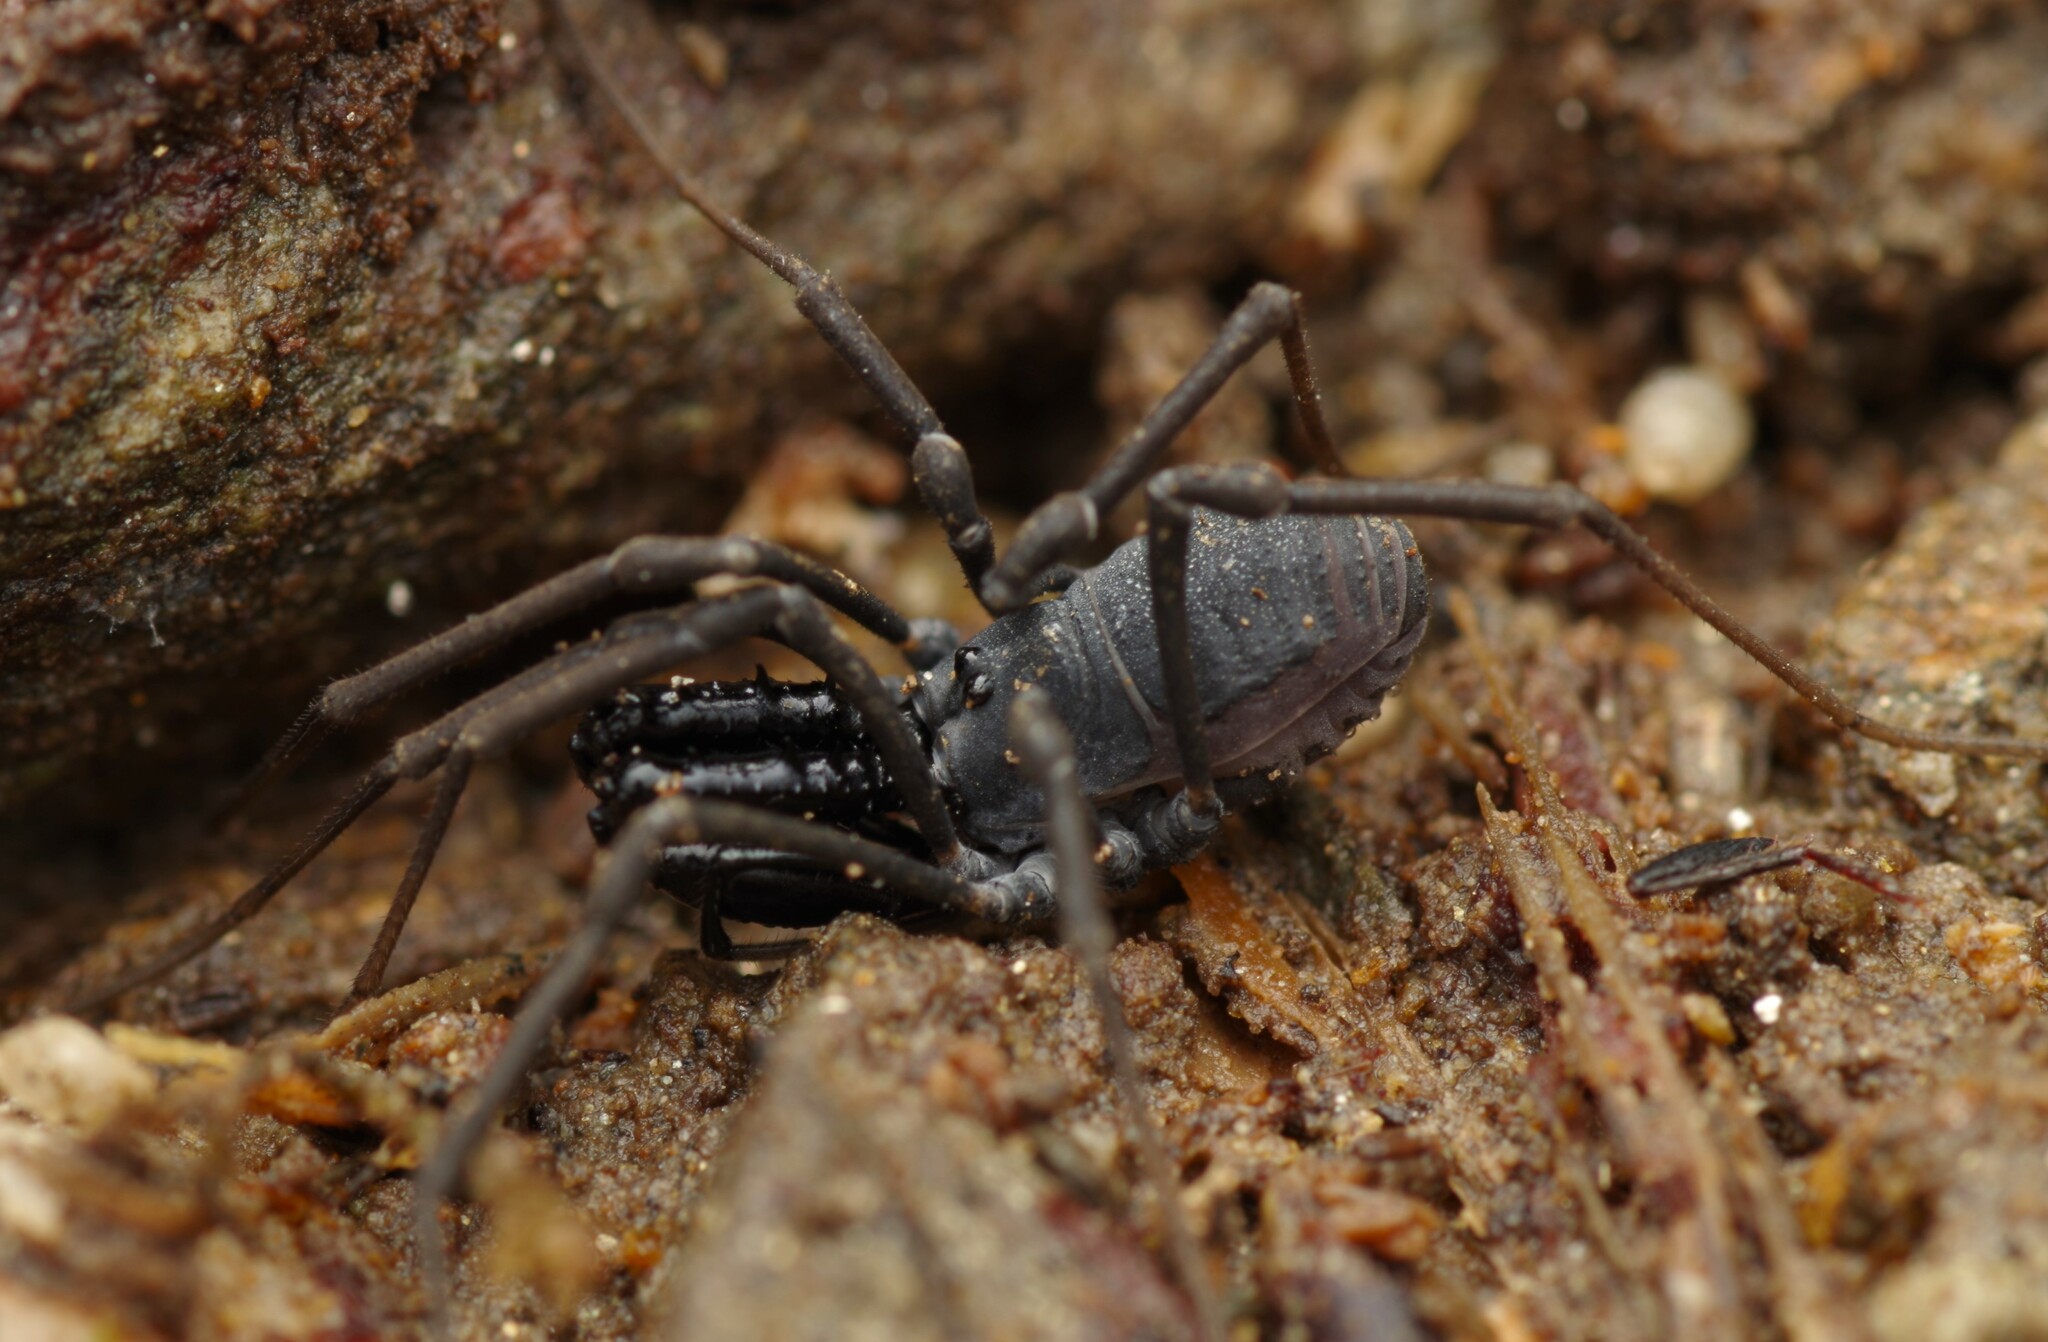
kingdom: Animalia
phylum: Arthropoda
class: Arachnida
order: Opiliones
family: Ischyropsalididae
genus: Ischyropsalis
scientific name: Ischyropsalis luteipes
